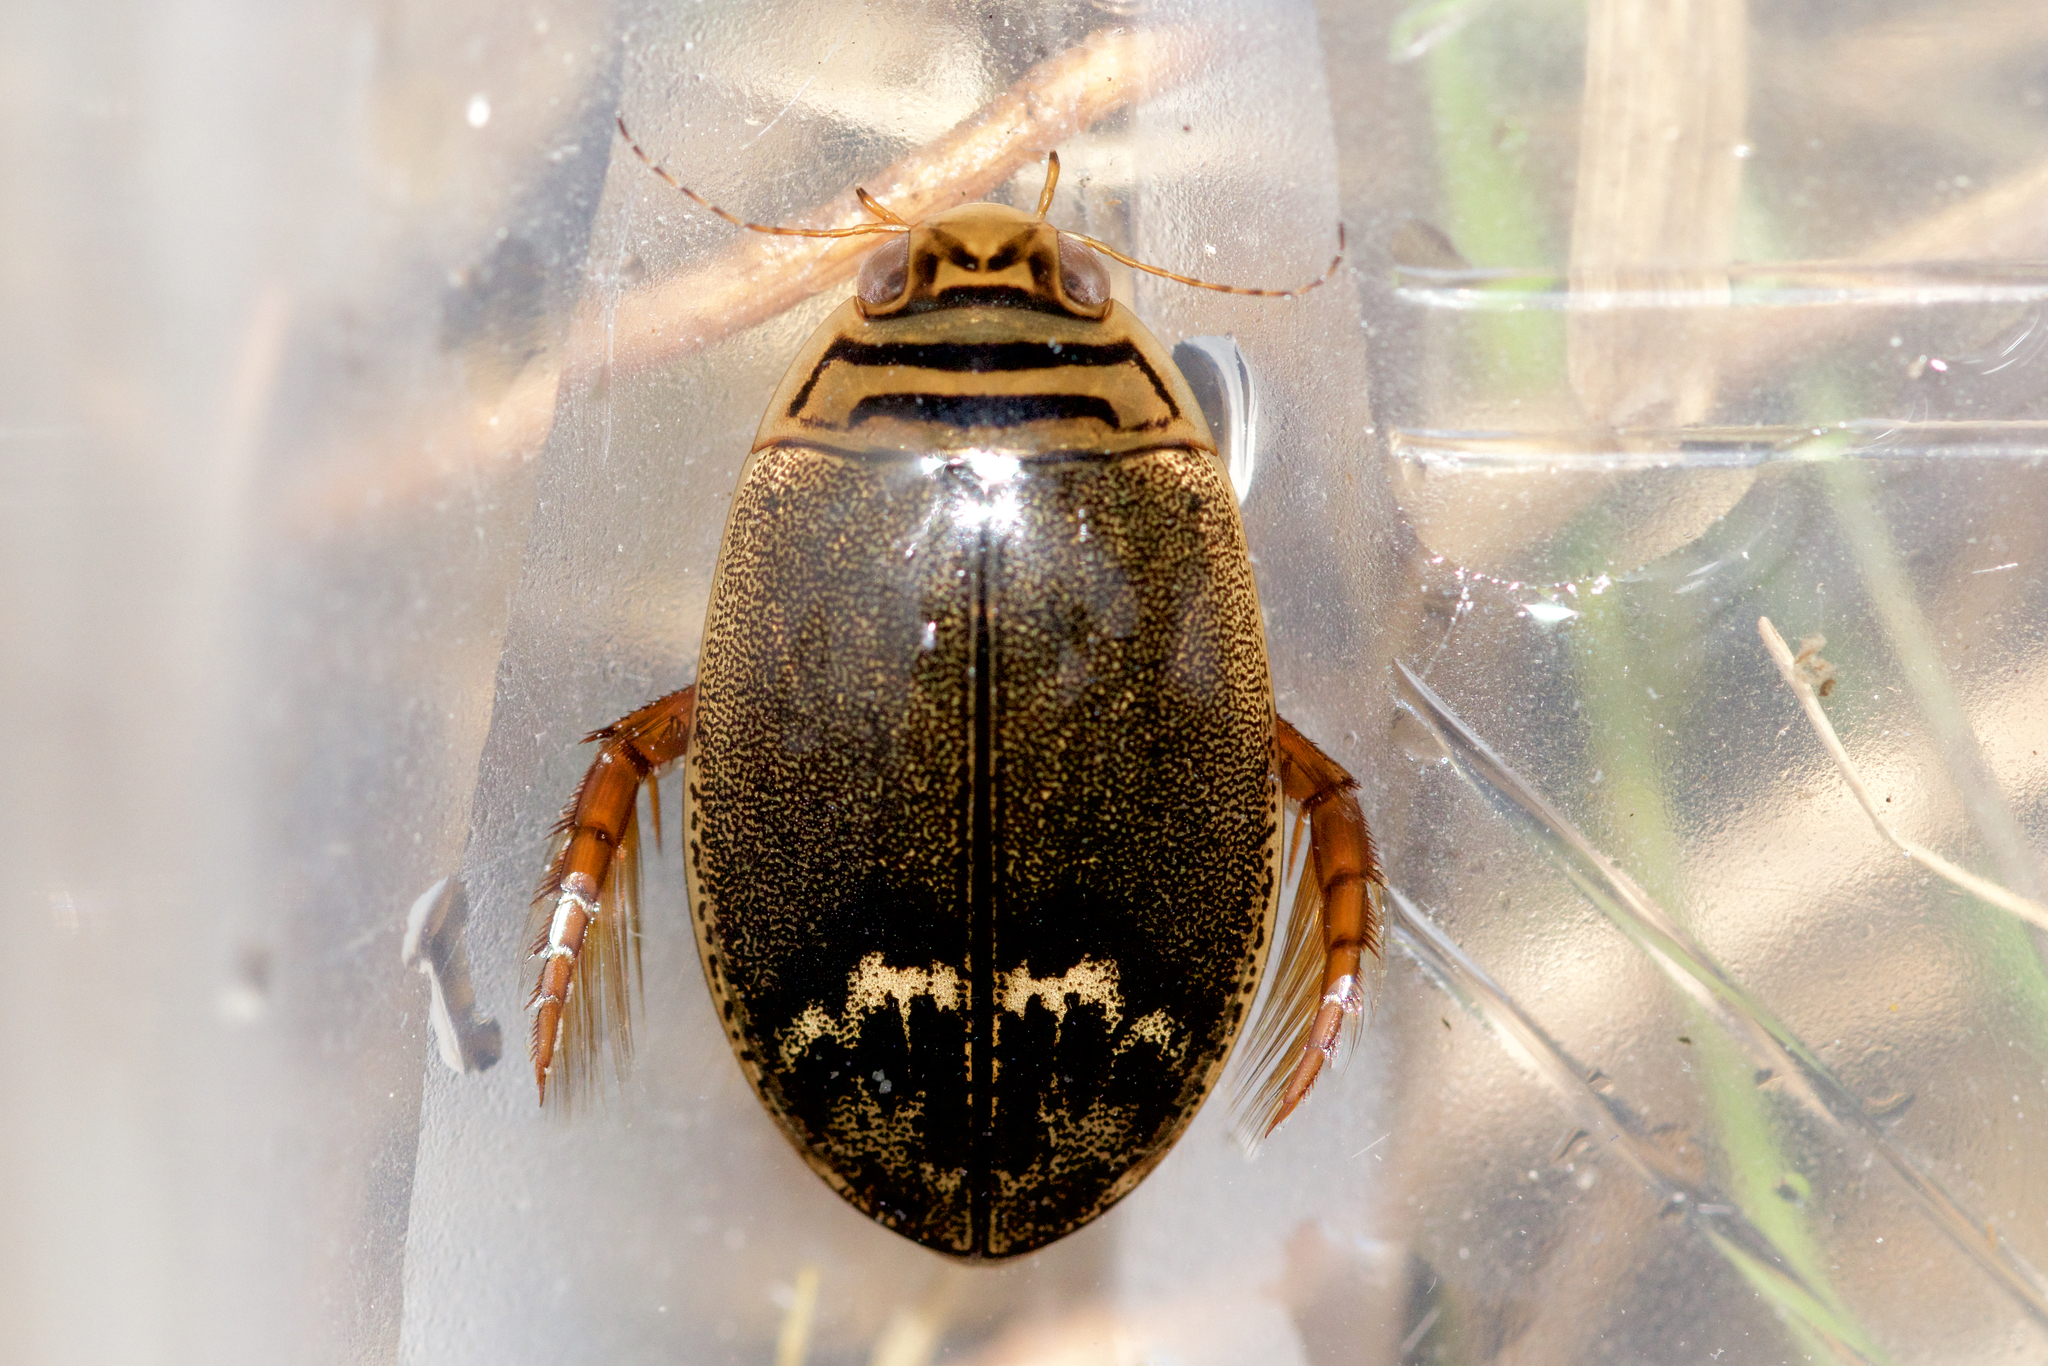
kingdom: Animalia
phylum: Arthropoda
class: Insecta
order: Coleoptera
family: Dytiscidae
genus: Acilius
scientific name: Acilius semisulcatus
